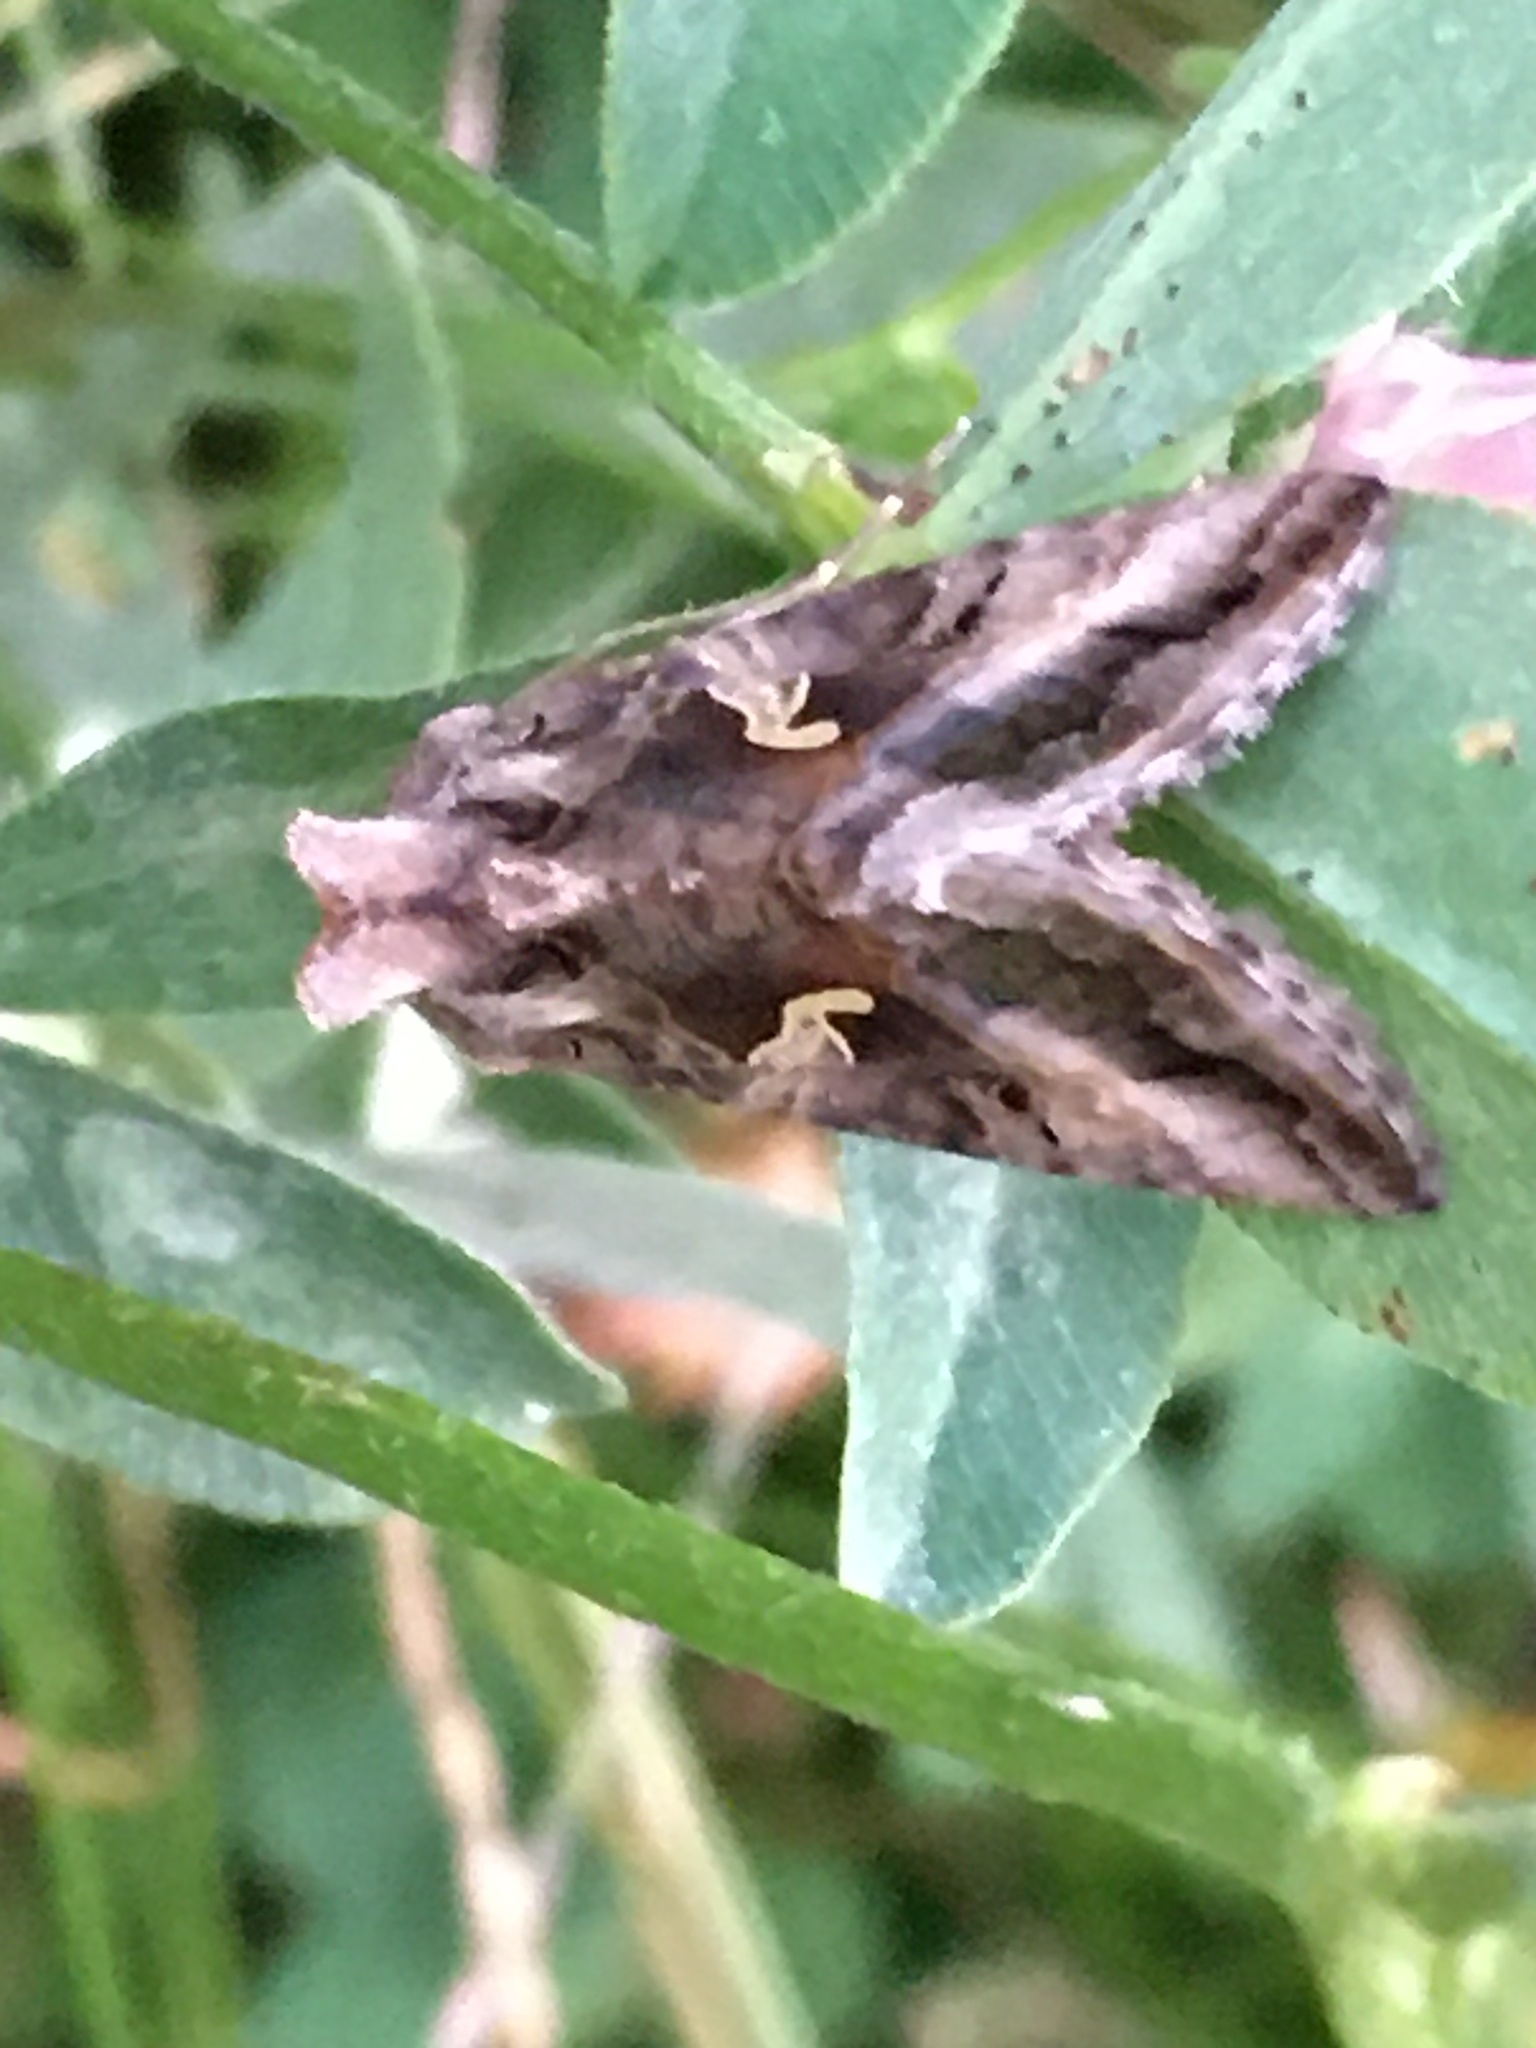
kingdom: Animalia
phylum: Arthropoda
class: Insecta
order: Lepidoptera
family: Noctuidae
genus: Autographa
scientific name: Autographa gamma
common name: Silver y
